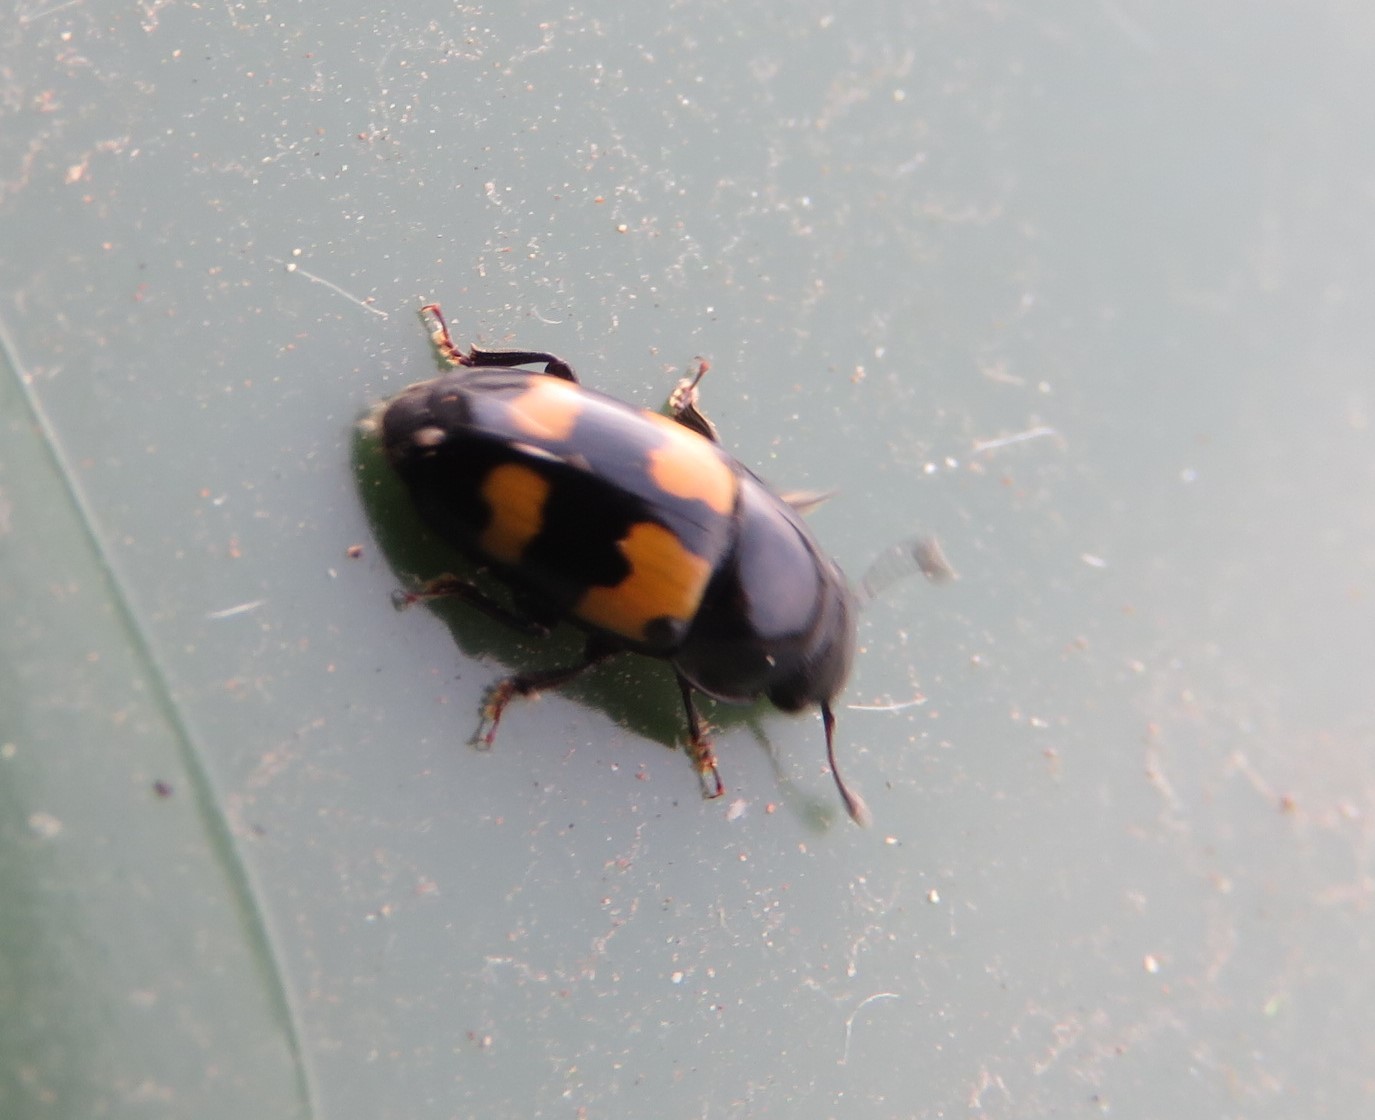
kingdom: Animalia
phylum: Arthropoda
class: Insecta
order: Coleoptera
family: Nitidulidae
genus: Glischrochilus
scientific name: Glischrochilus fasciatus
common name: Picnic beetle
